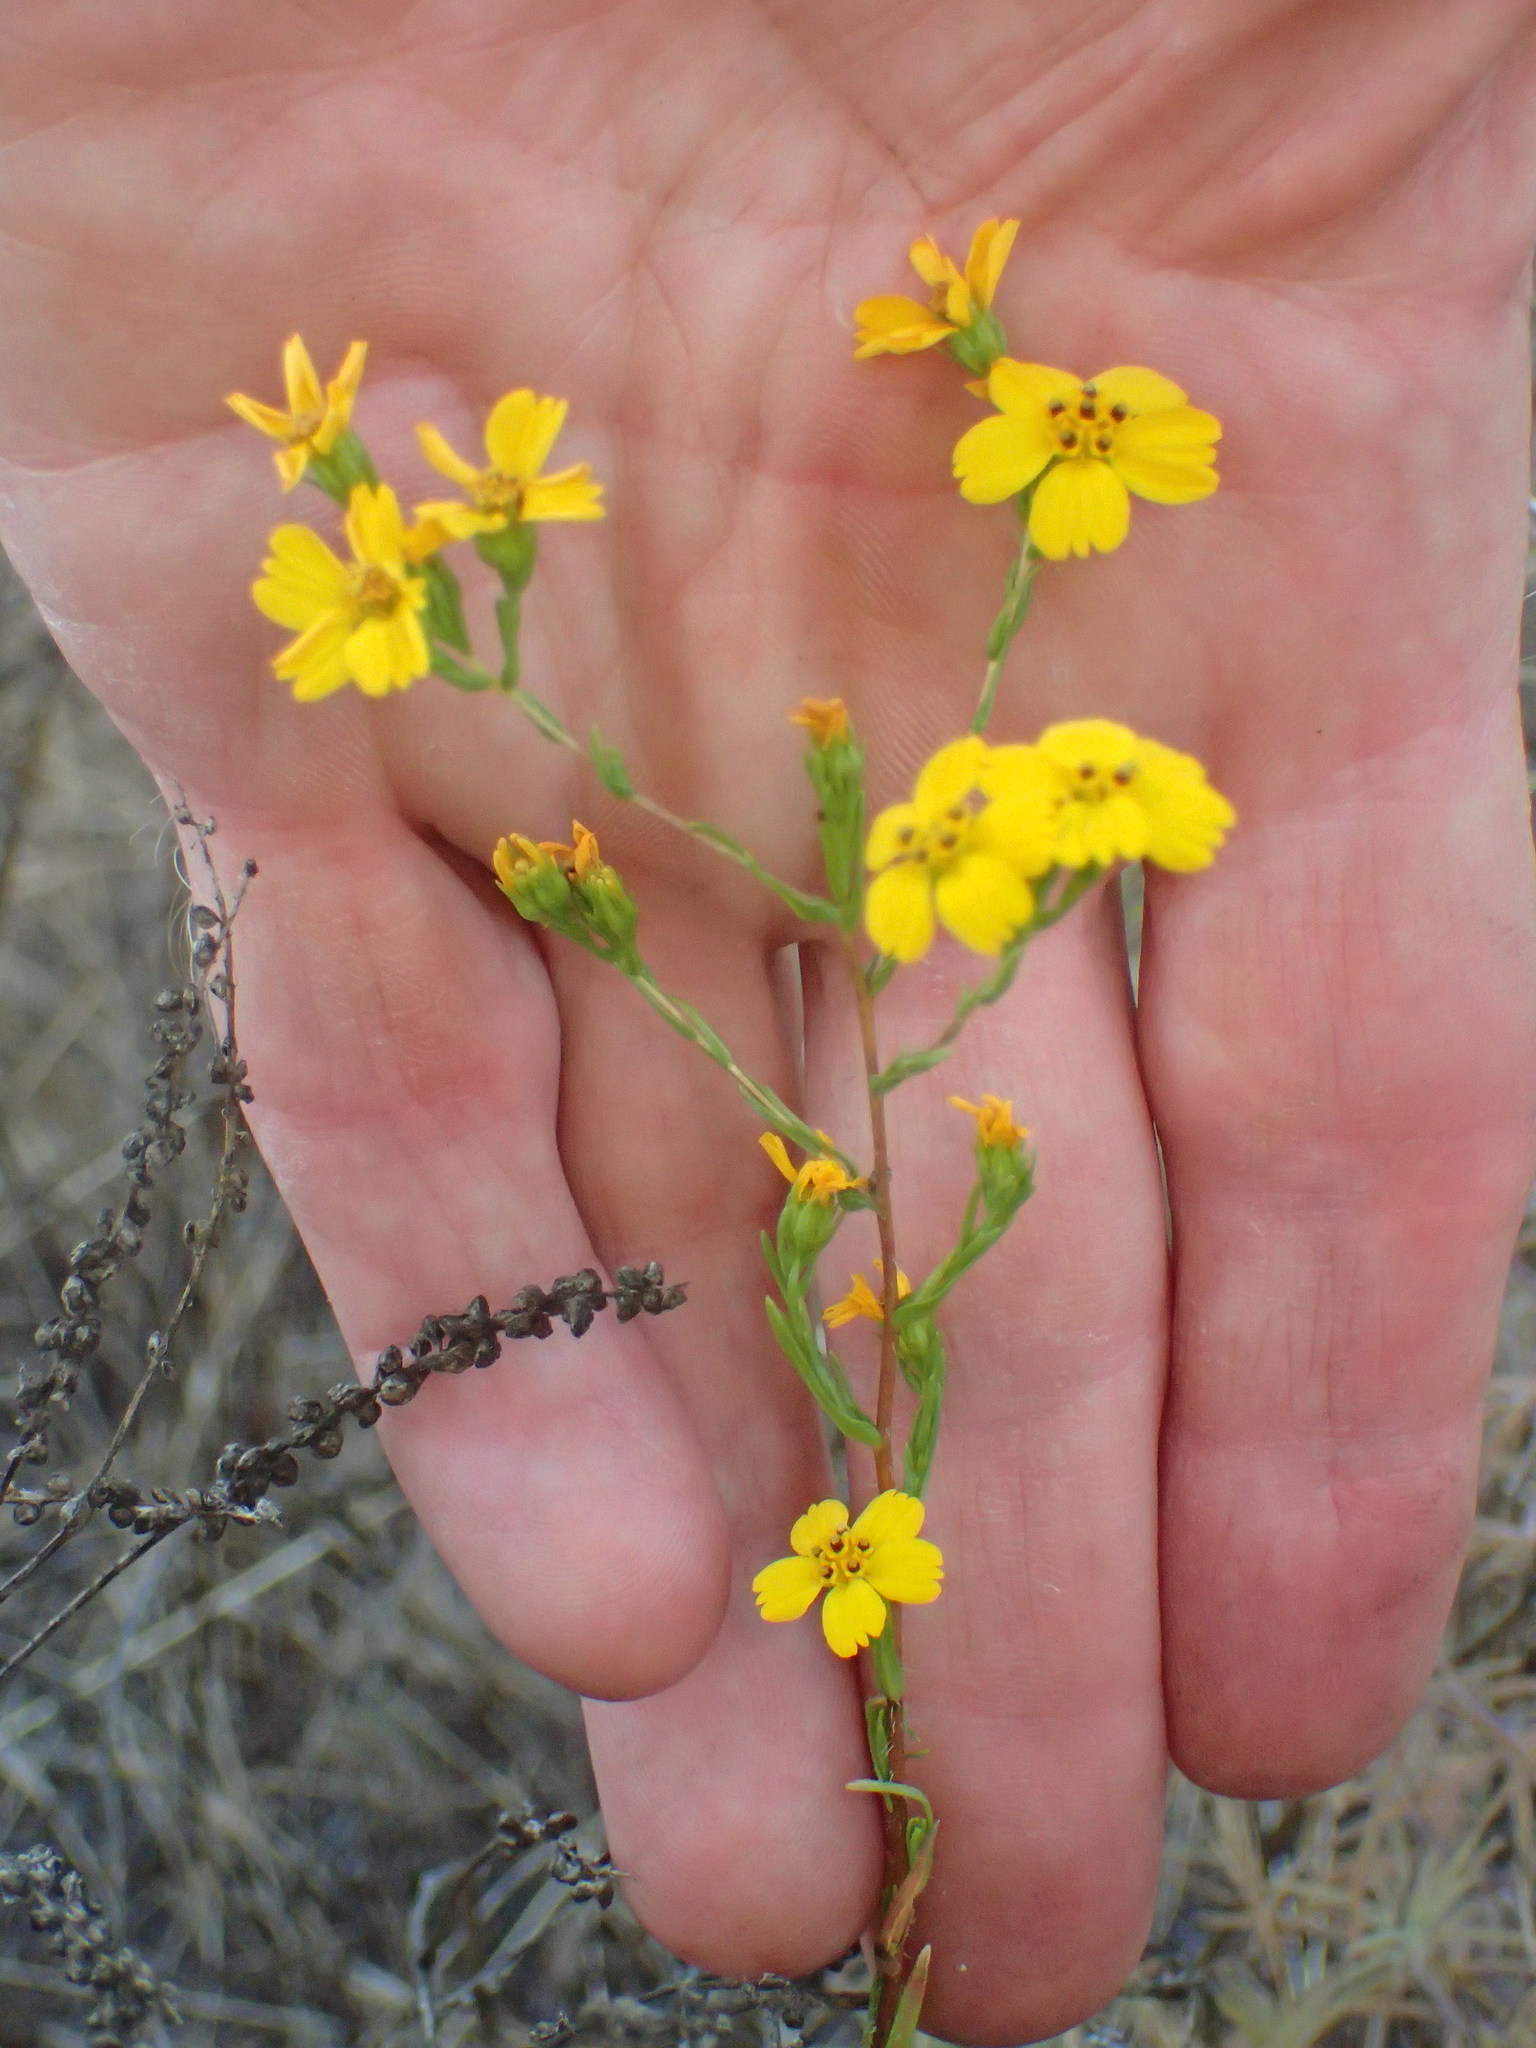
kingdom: Plantae
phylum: Tracheophyta
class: Magnoliopsida
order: Asterales
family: Asteraceae
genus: Deinandra
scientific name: Deinandra fasciculata
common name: Clustered tarweed
